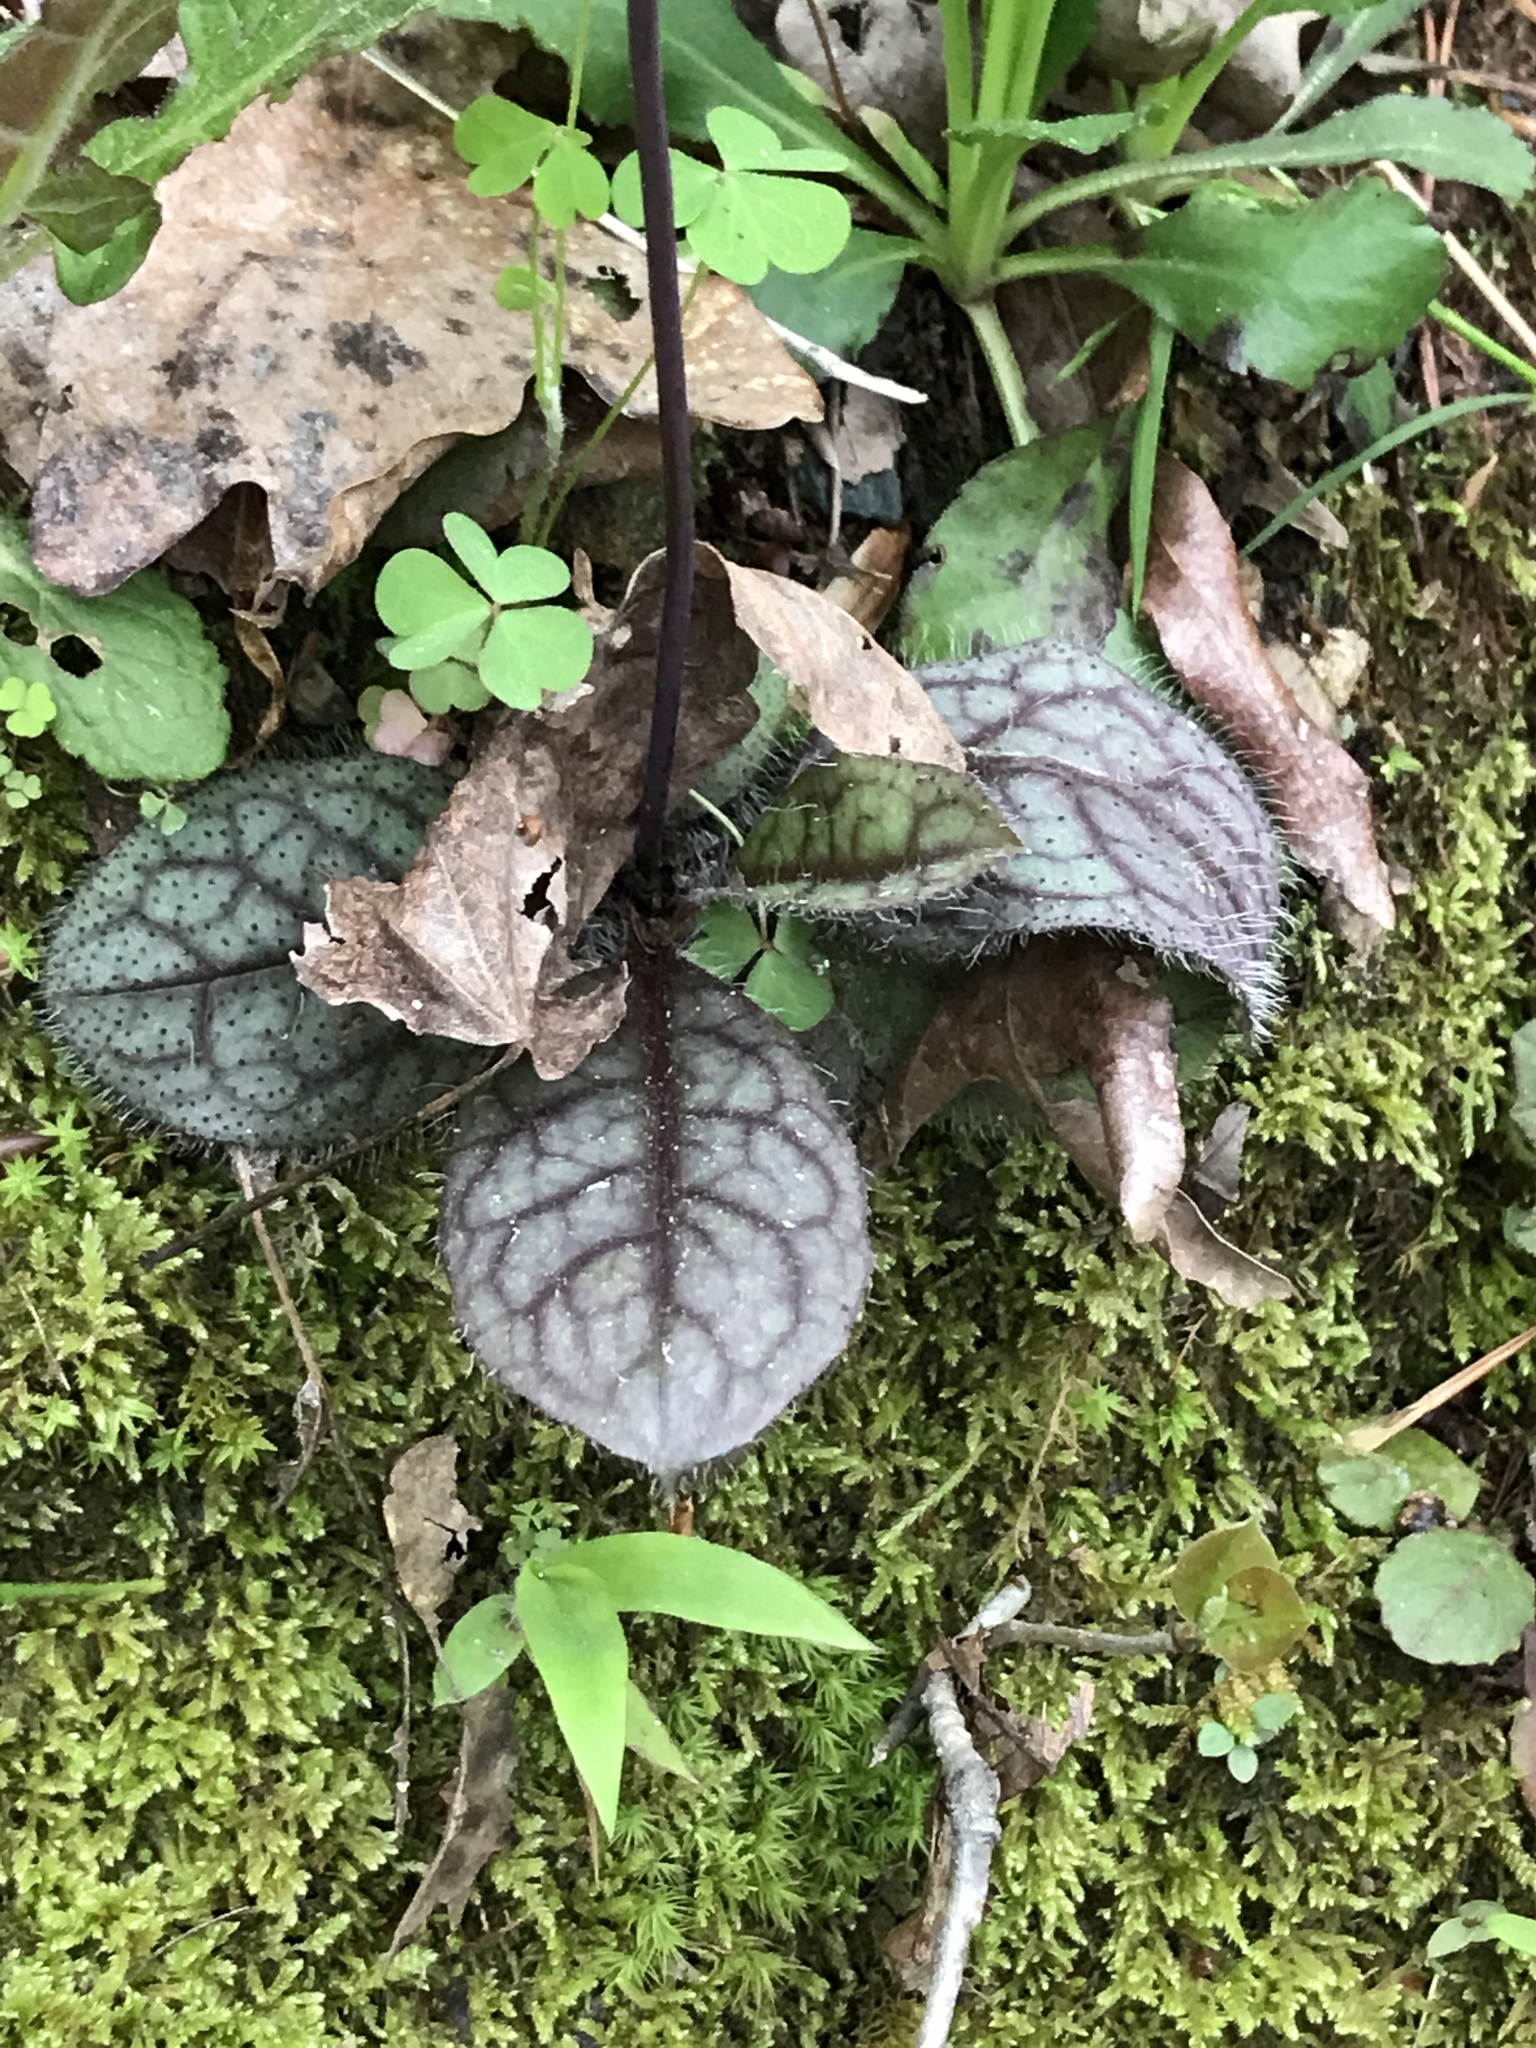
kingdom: Plantae
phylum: Tracheophyta
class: Magnoliopsida
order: Asterales
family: Asteraceae
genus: Hieracium
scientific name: Hieracium venosum
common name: Rattlesnake hawkweed
